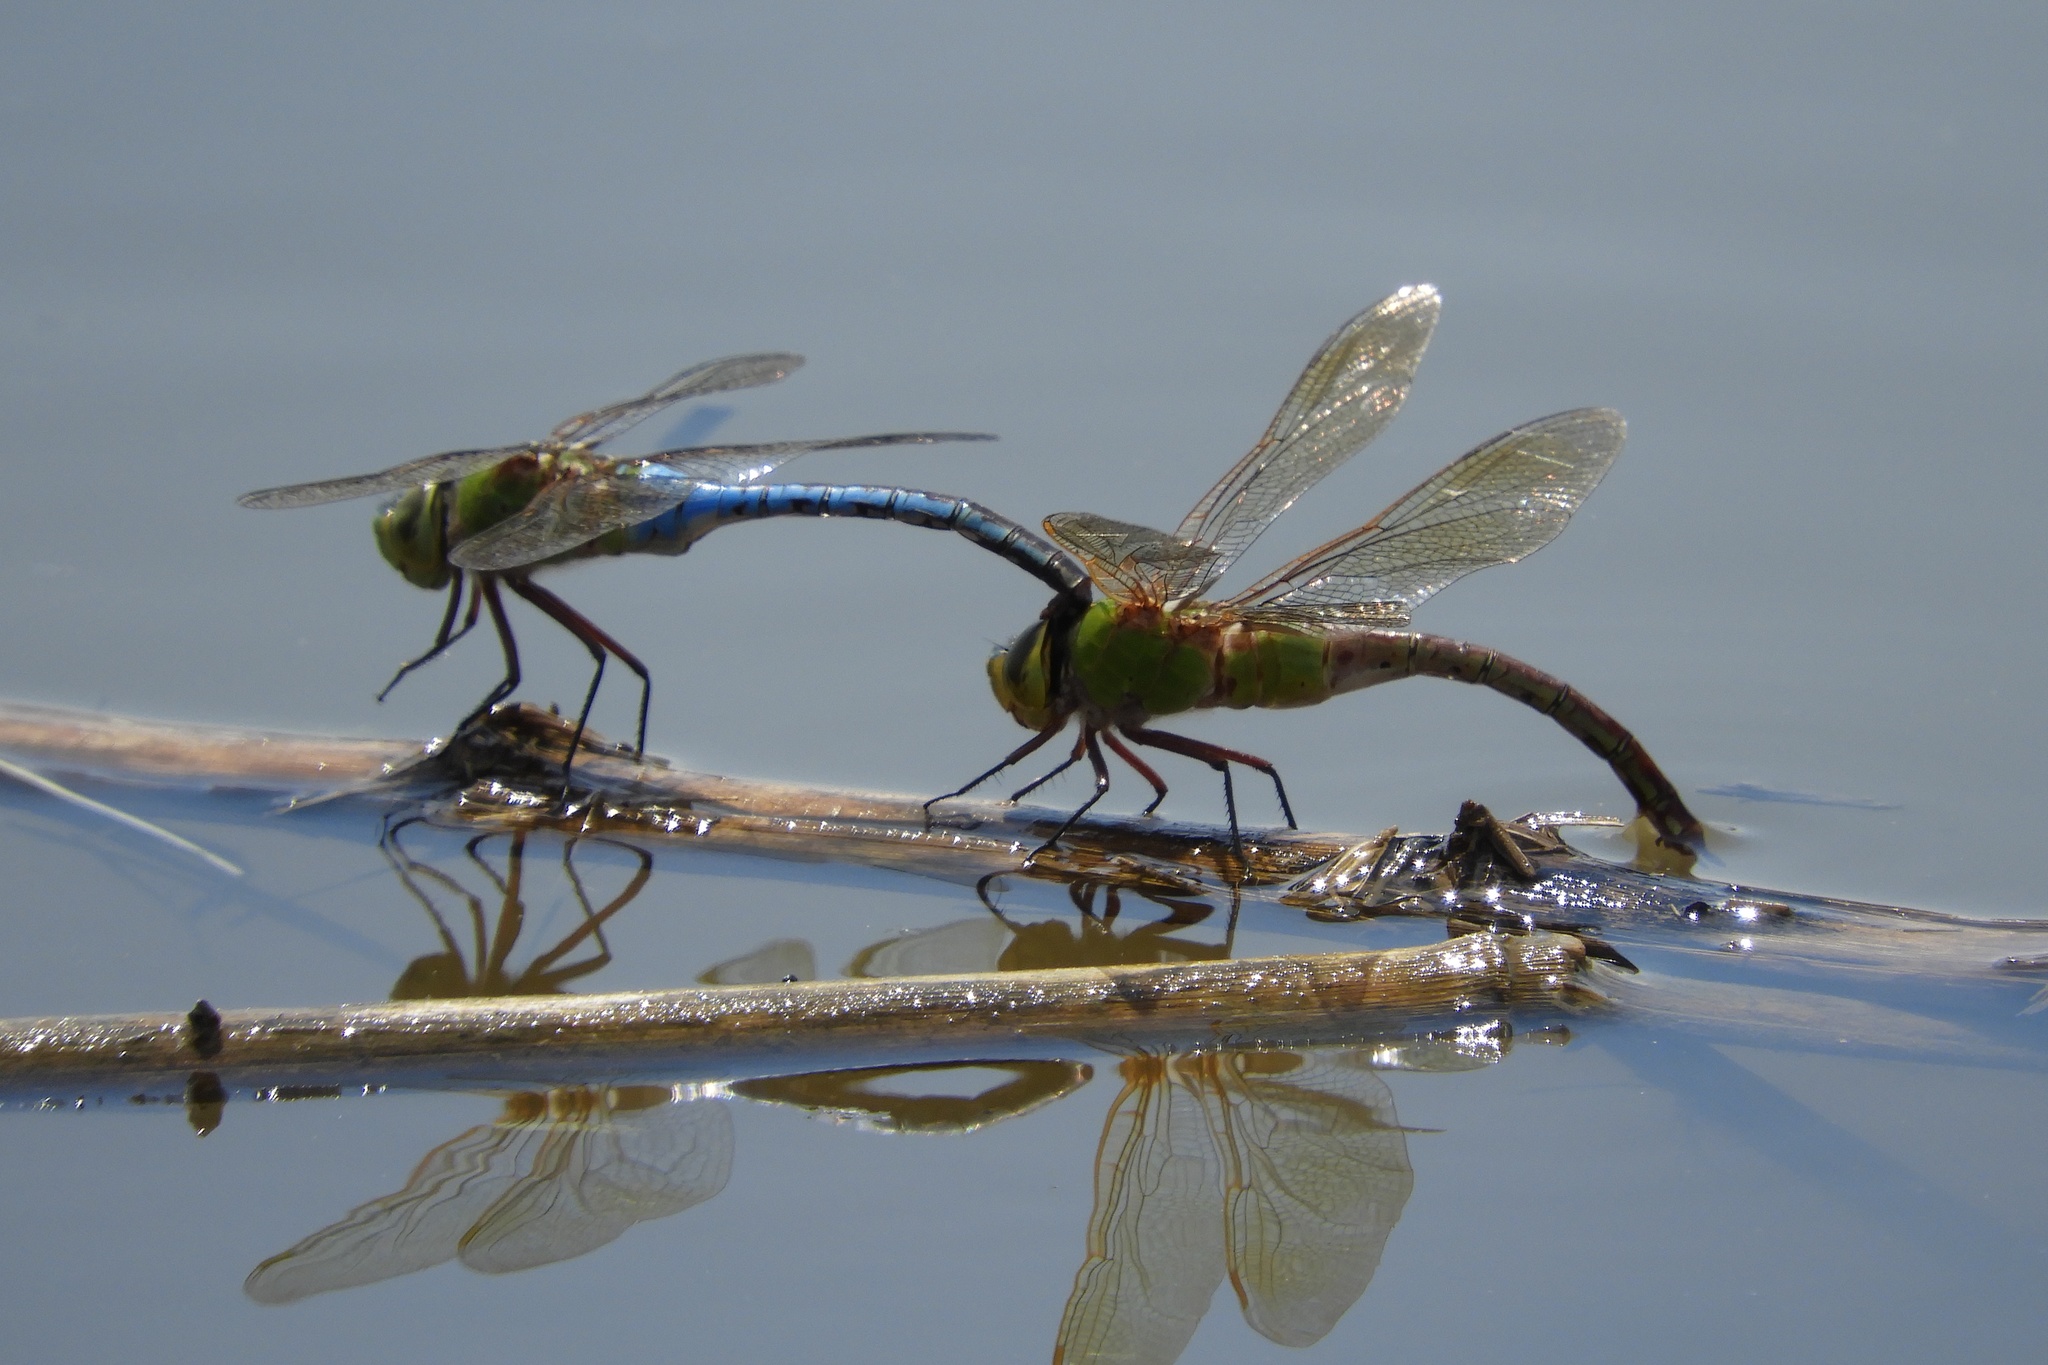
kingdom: Animalia
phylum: Arthropoda
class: Insecta
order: Odonata
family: Aeshnidae
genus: Anax
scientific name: Anax junius
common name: Common green darner
